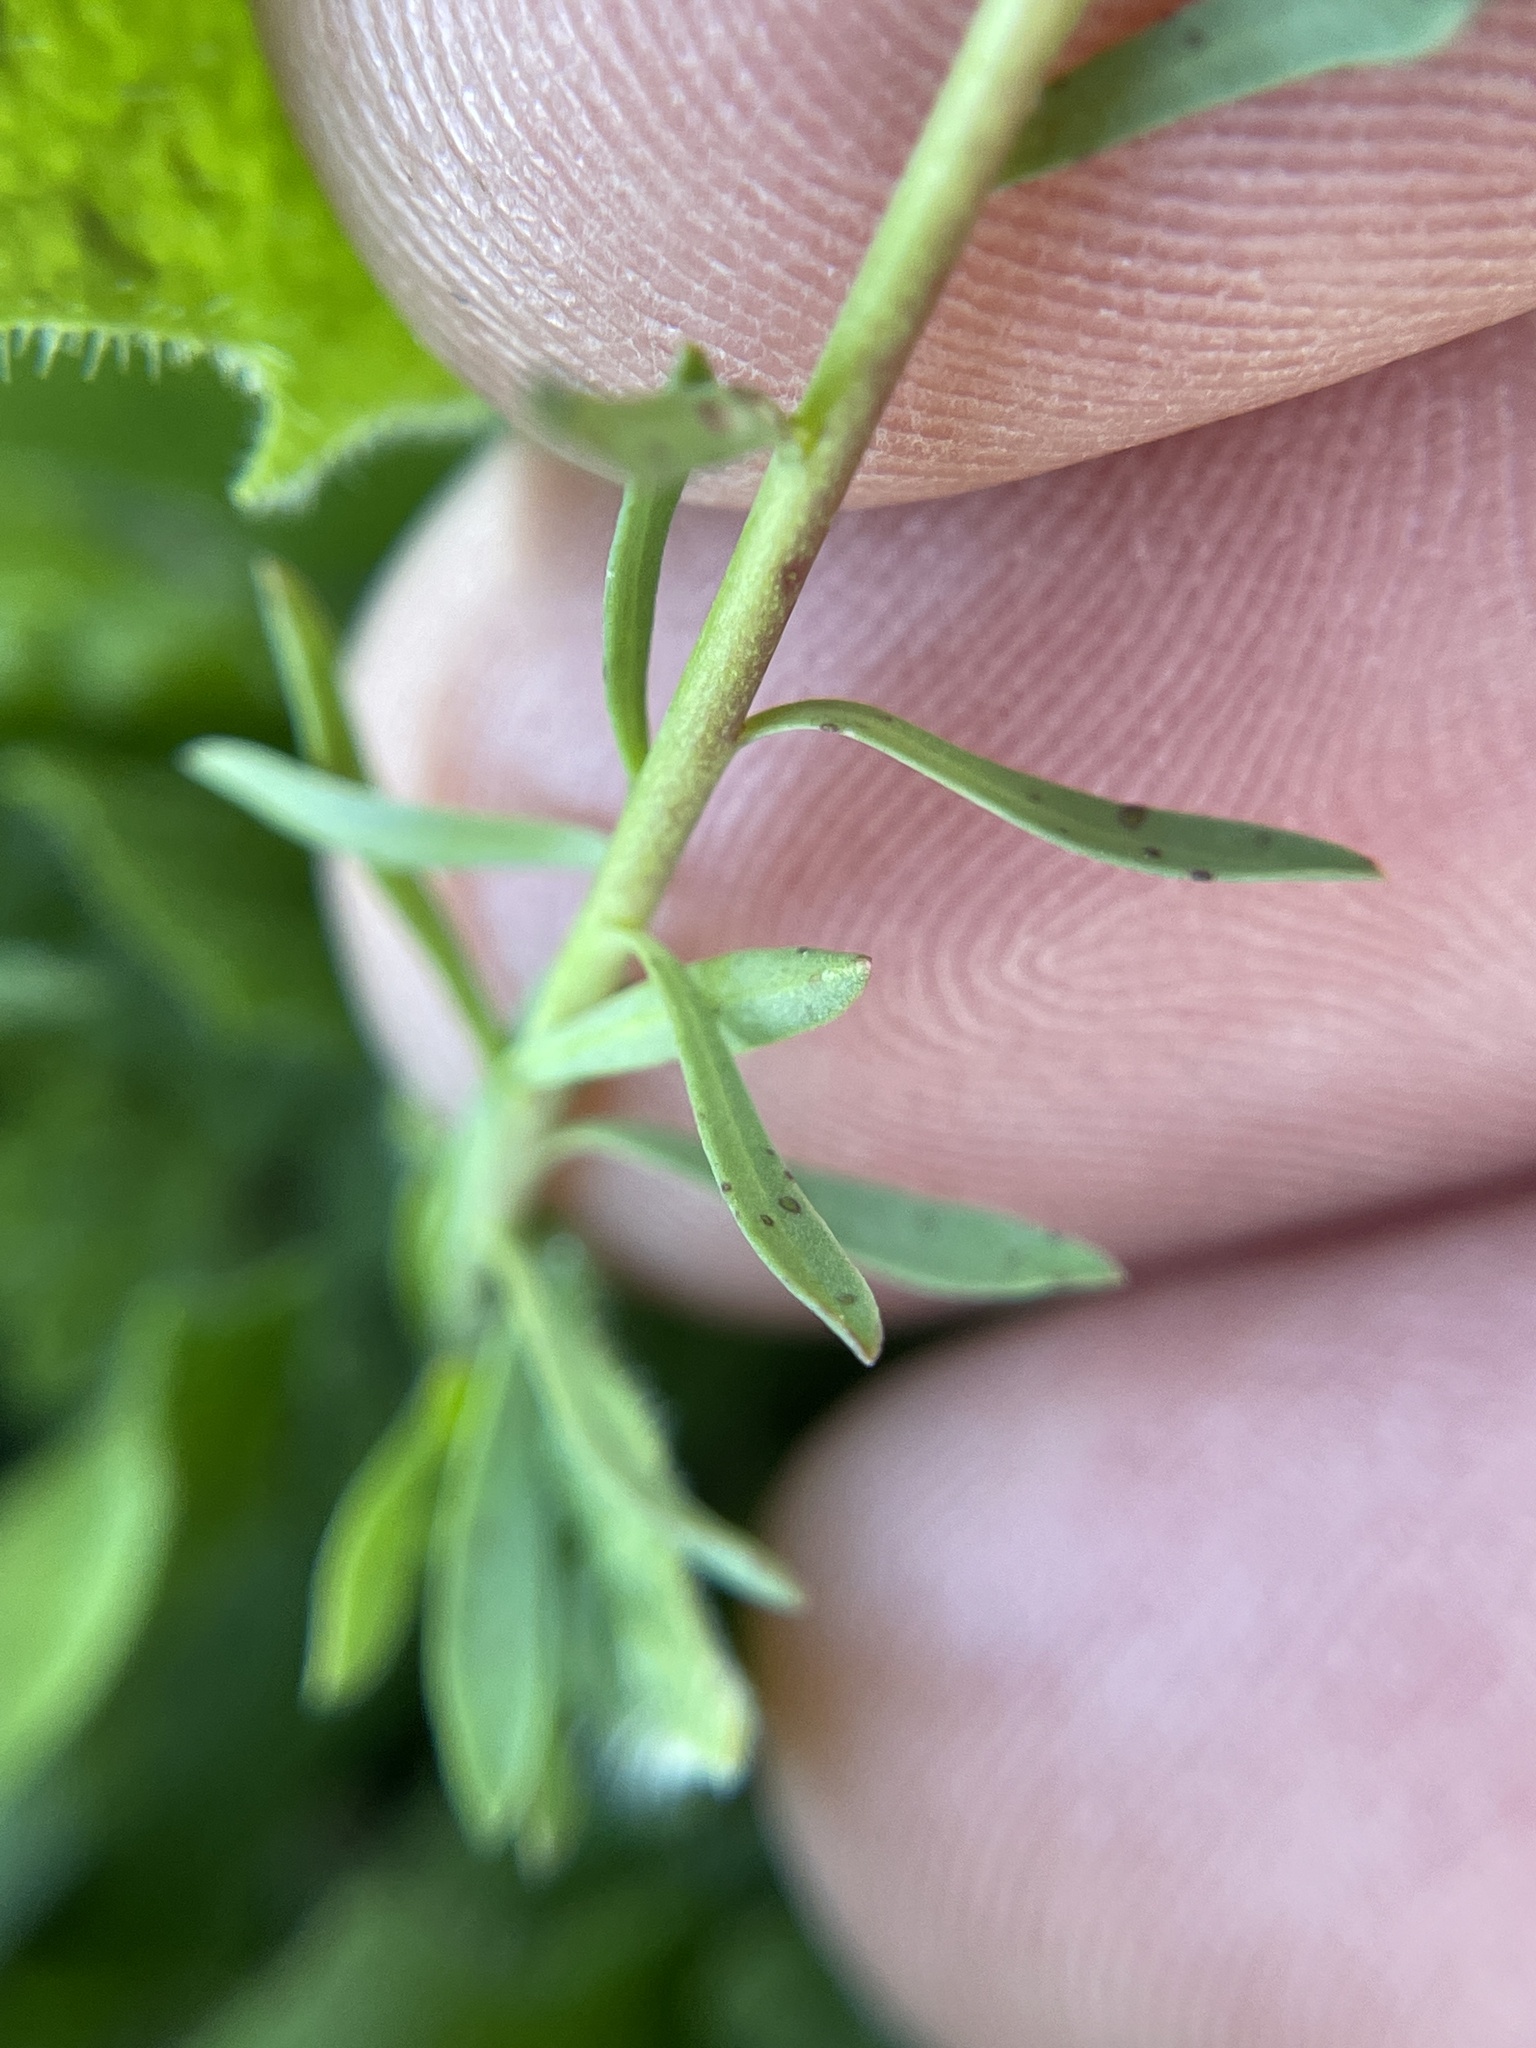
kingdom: Plantae
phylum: Tracheophyta
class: Magnoliopsida
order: Malpighiales
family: Euphorbiaceae
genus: Euphorbia
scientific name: Euphorbia peplidion
